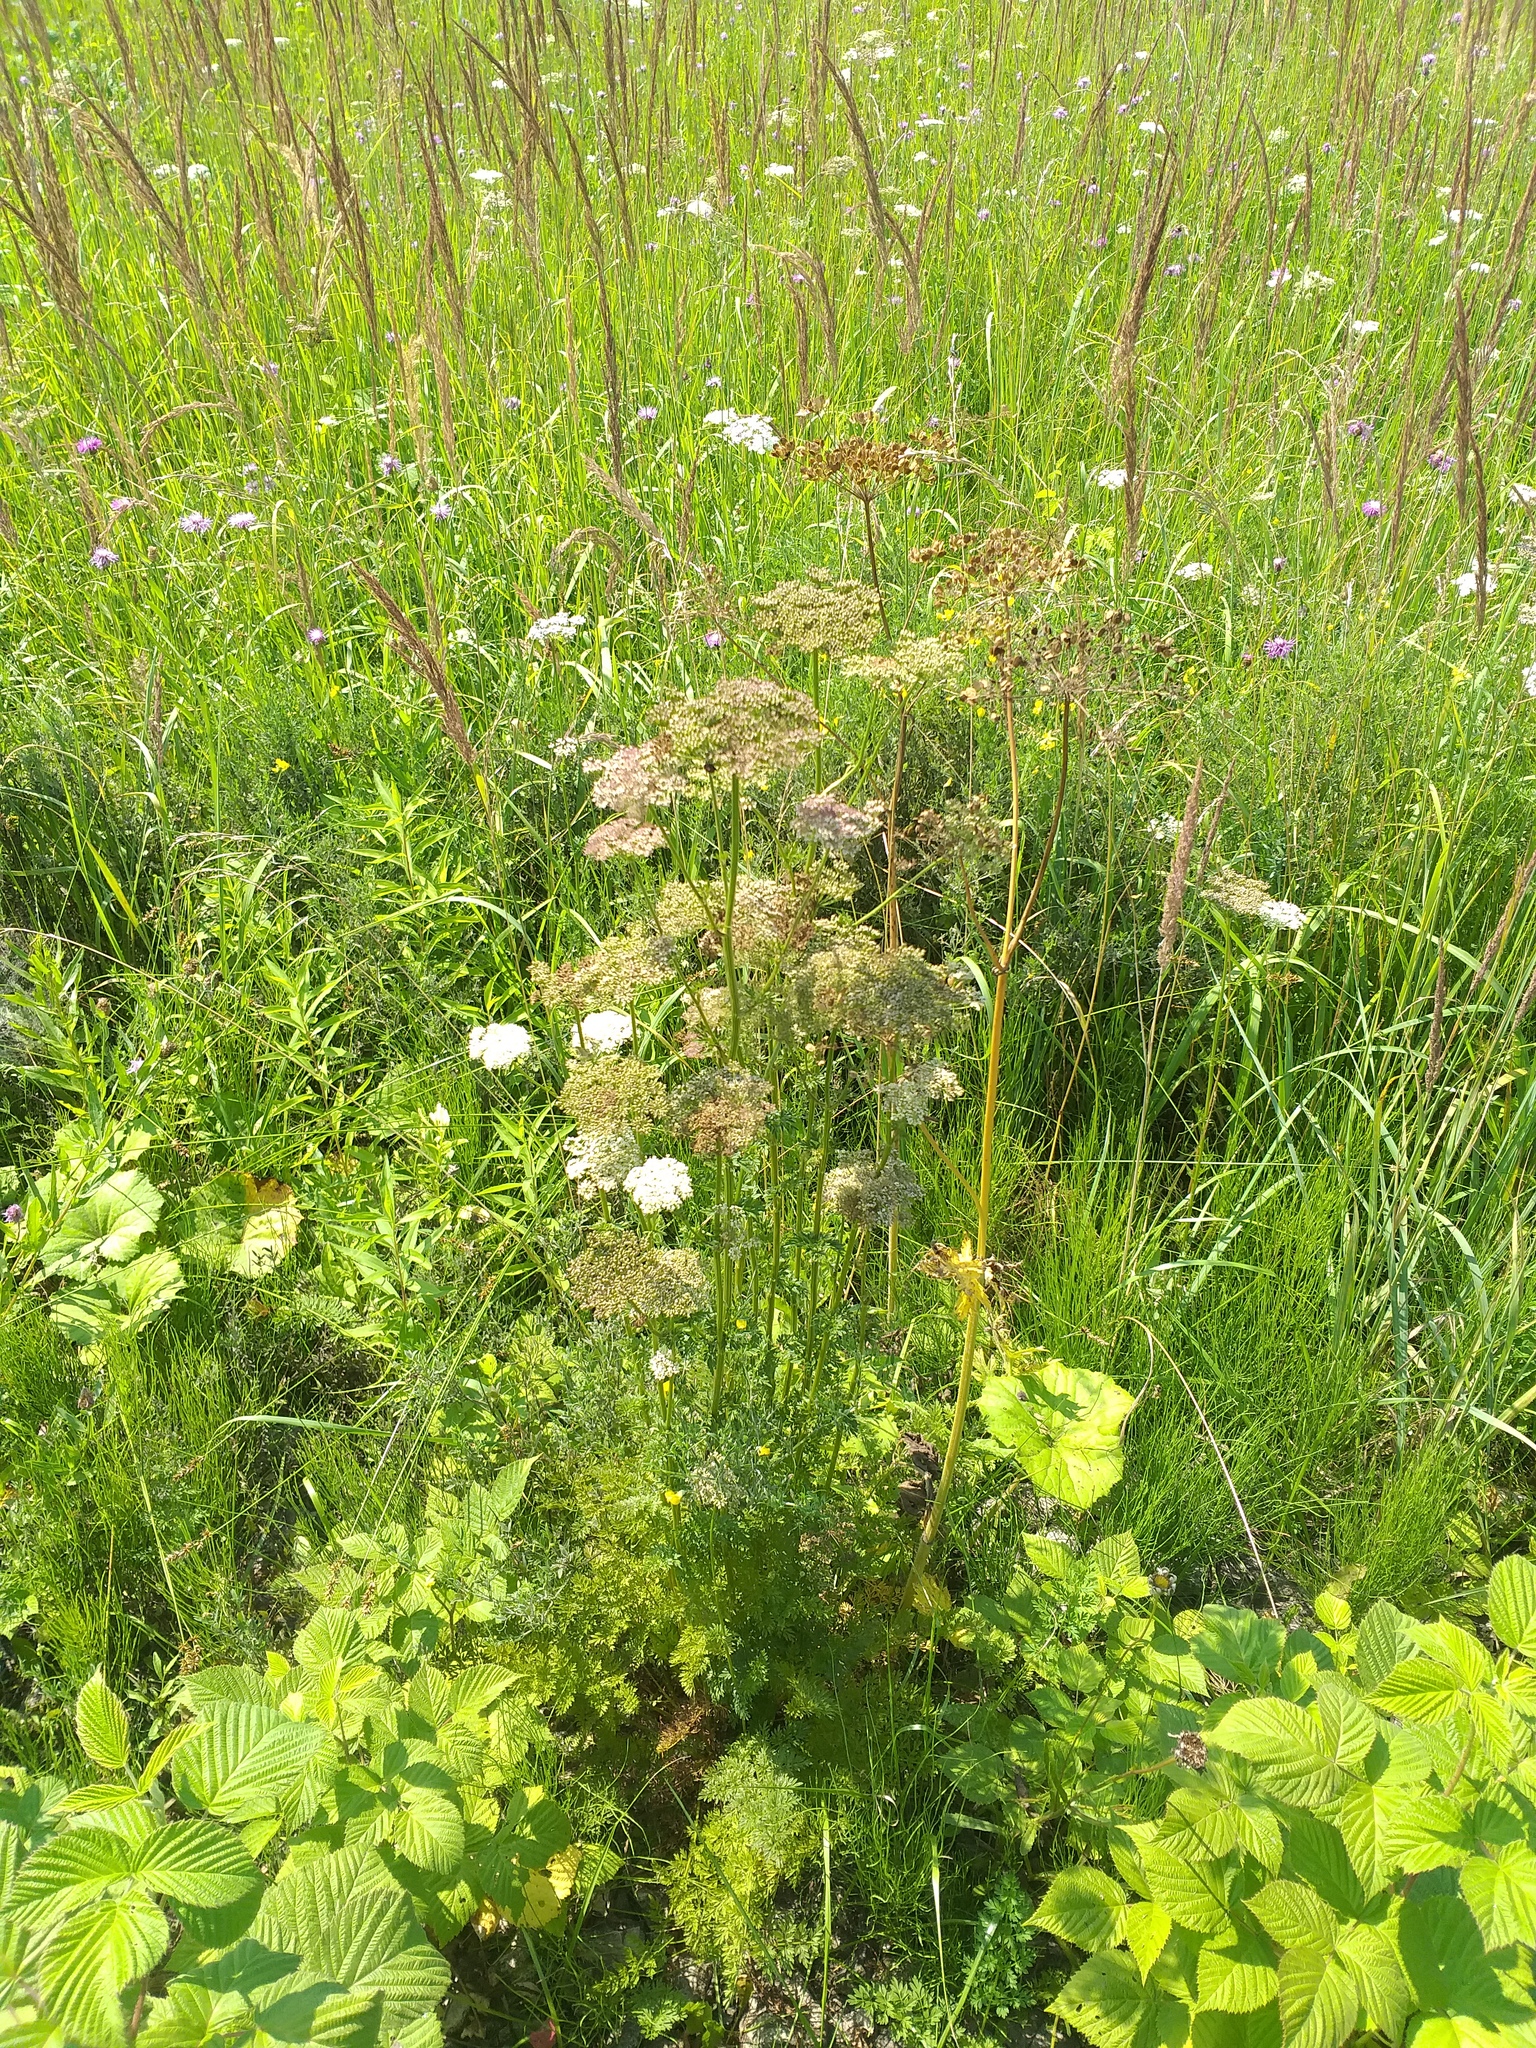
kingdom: Plantae
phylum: Tracheophyta
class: Magnoliopsida
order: Apiales
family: Apiaceae
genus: Selinum
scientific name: Selinum carvifolia
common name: Cambridge milk-parsley
